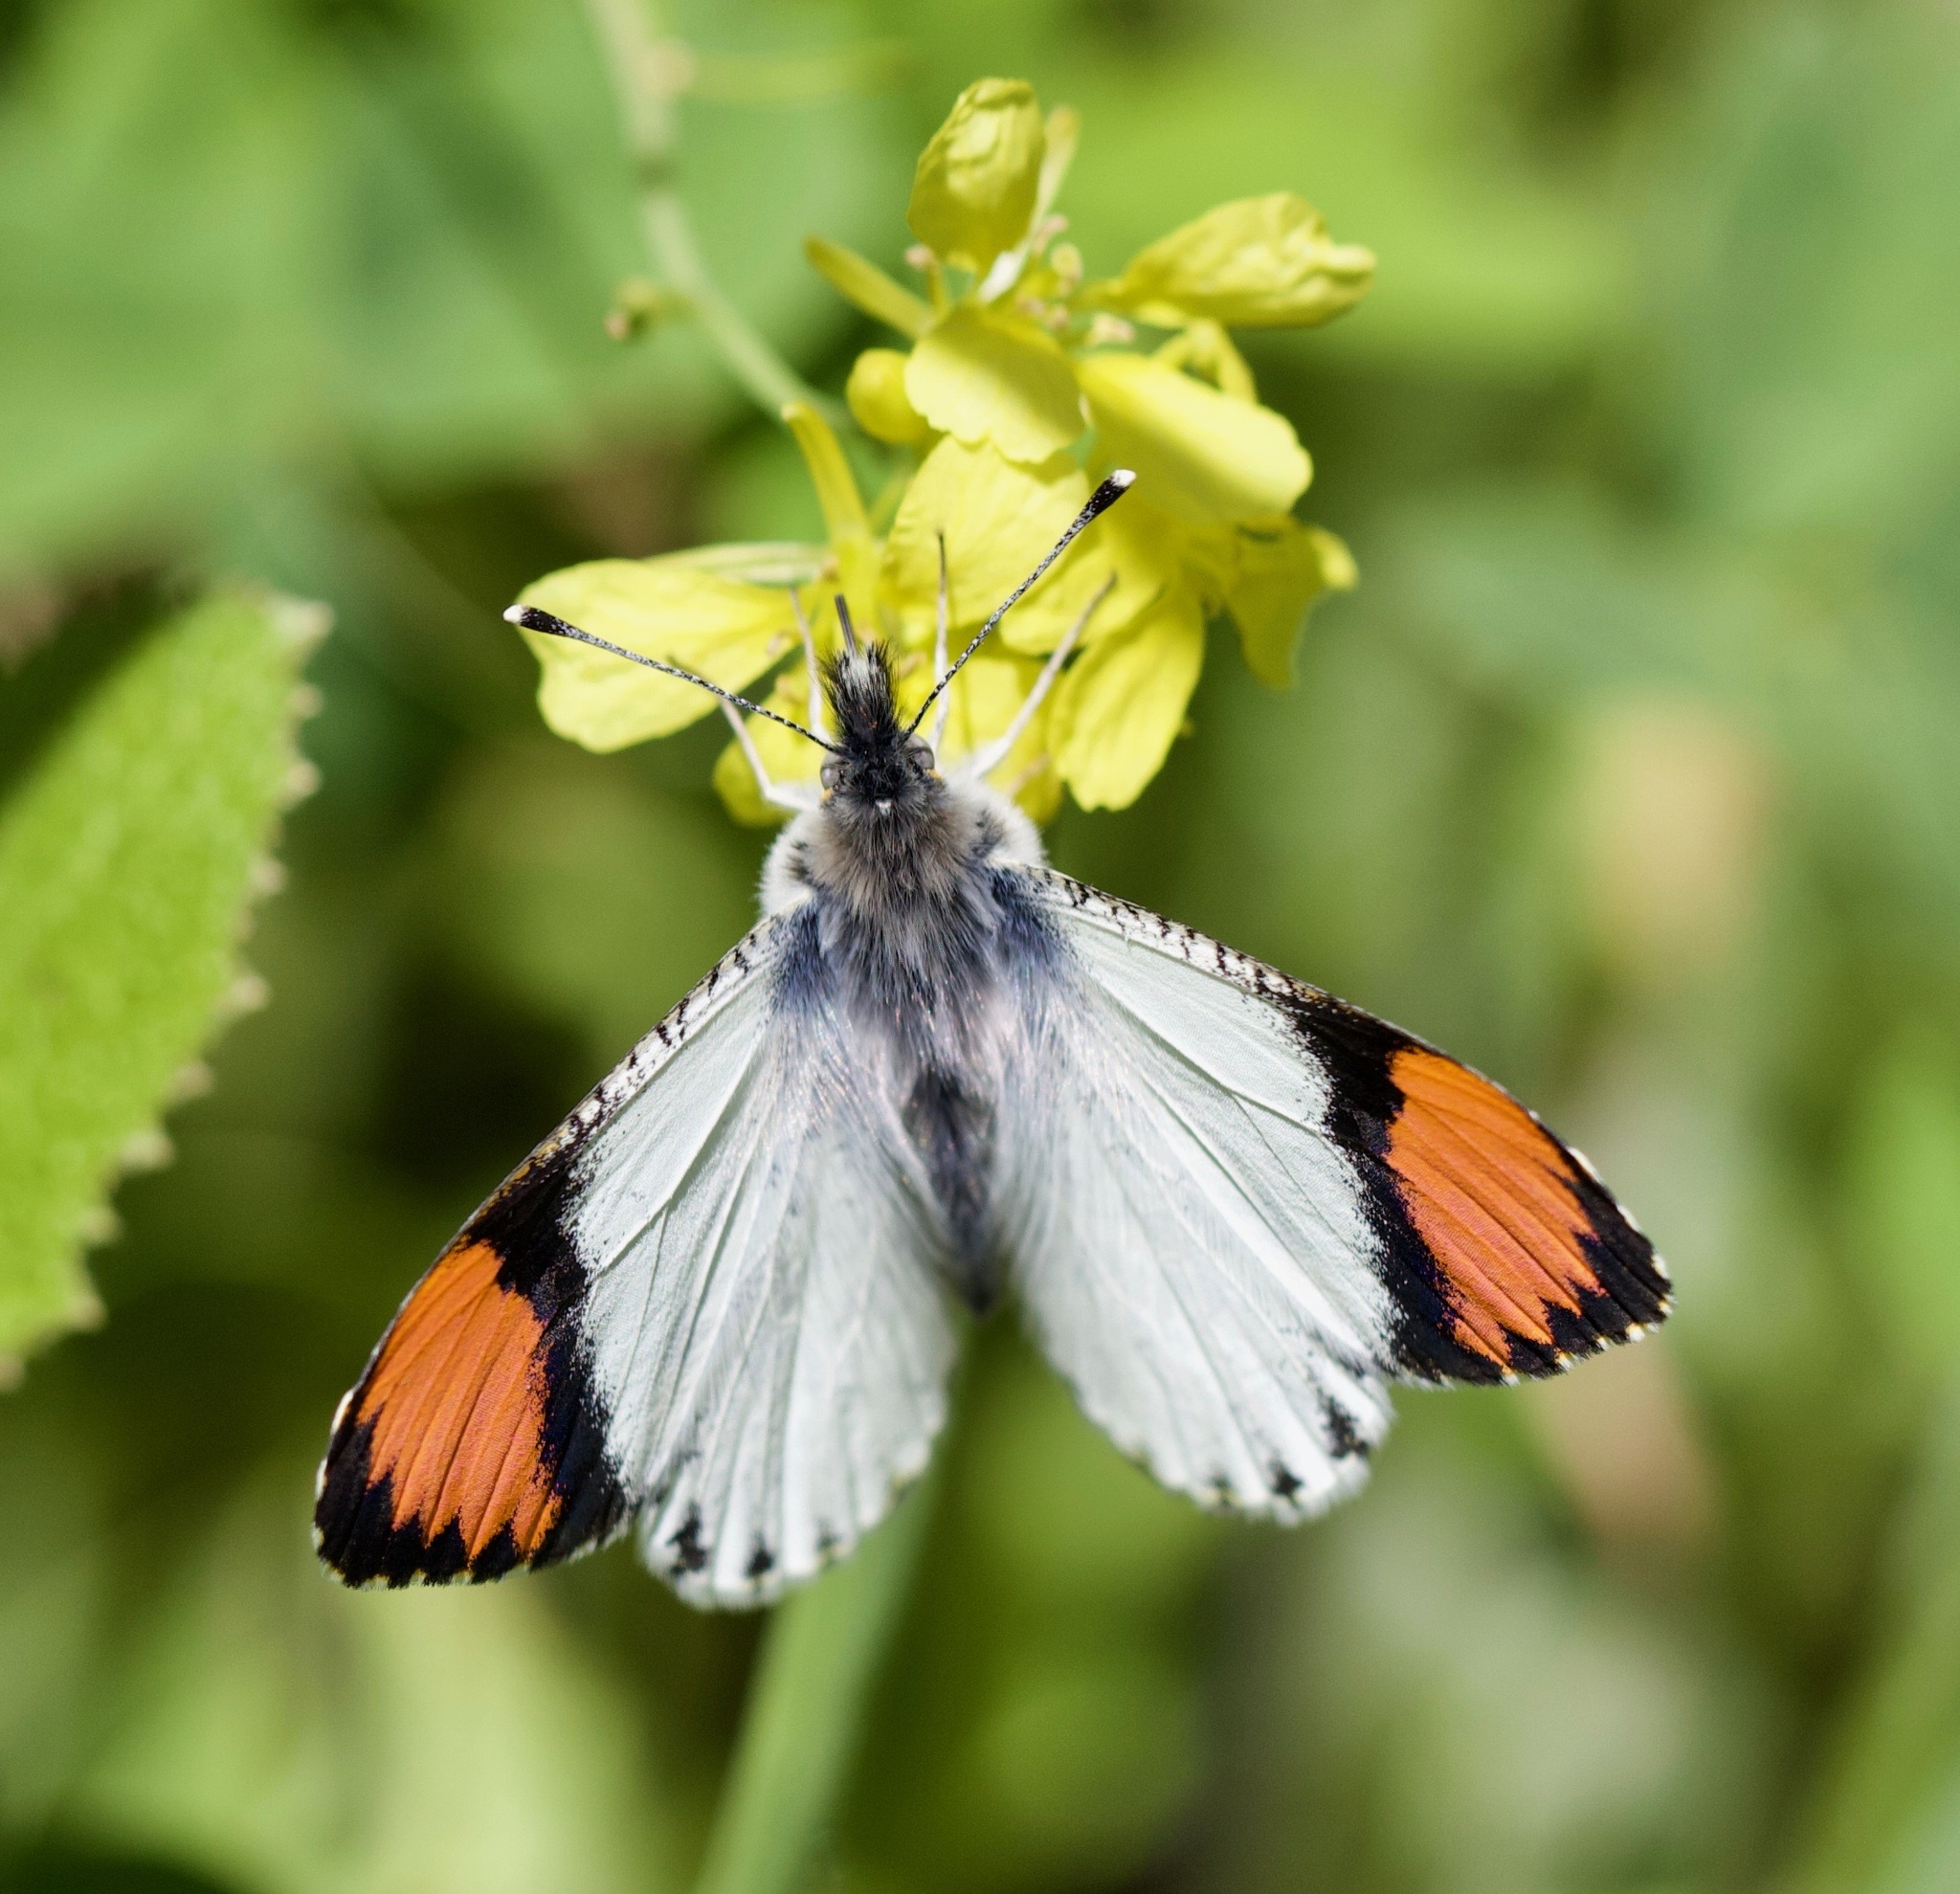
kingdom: Animalia
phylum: Arthropoda
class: Insecta
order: Lepidoptera
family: Pieridae
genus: Anthocharis
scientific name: Anthocharis sara
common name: Sara's orangetip
